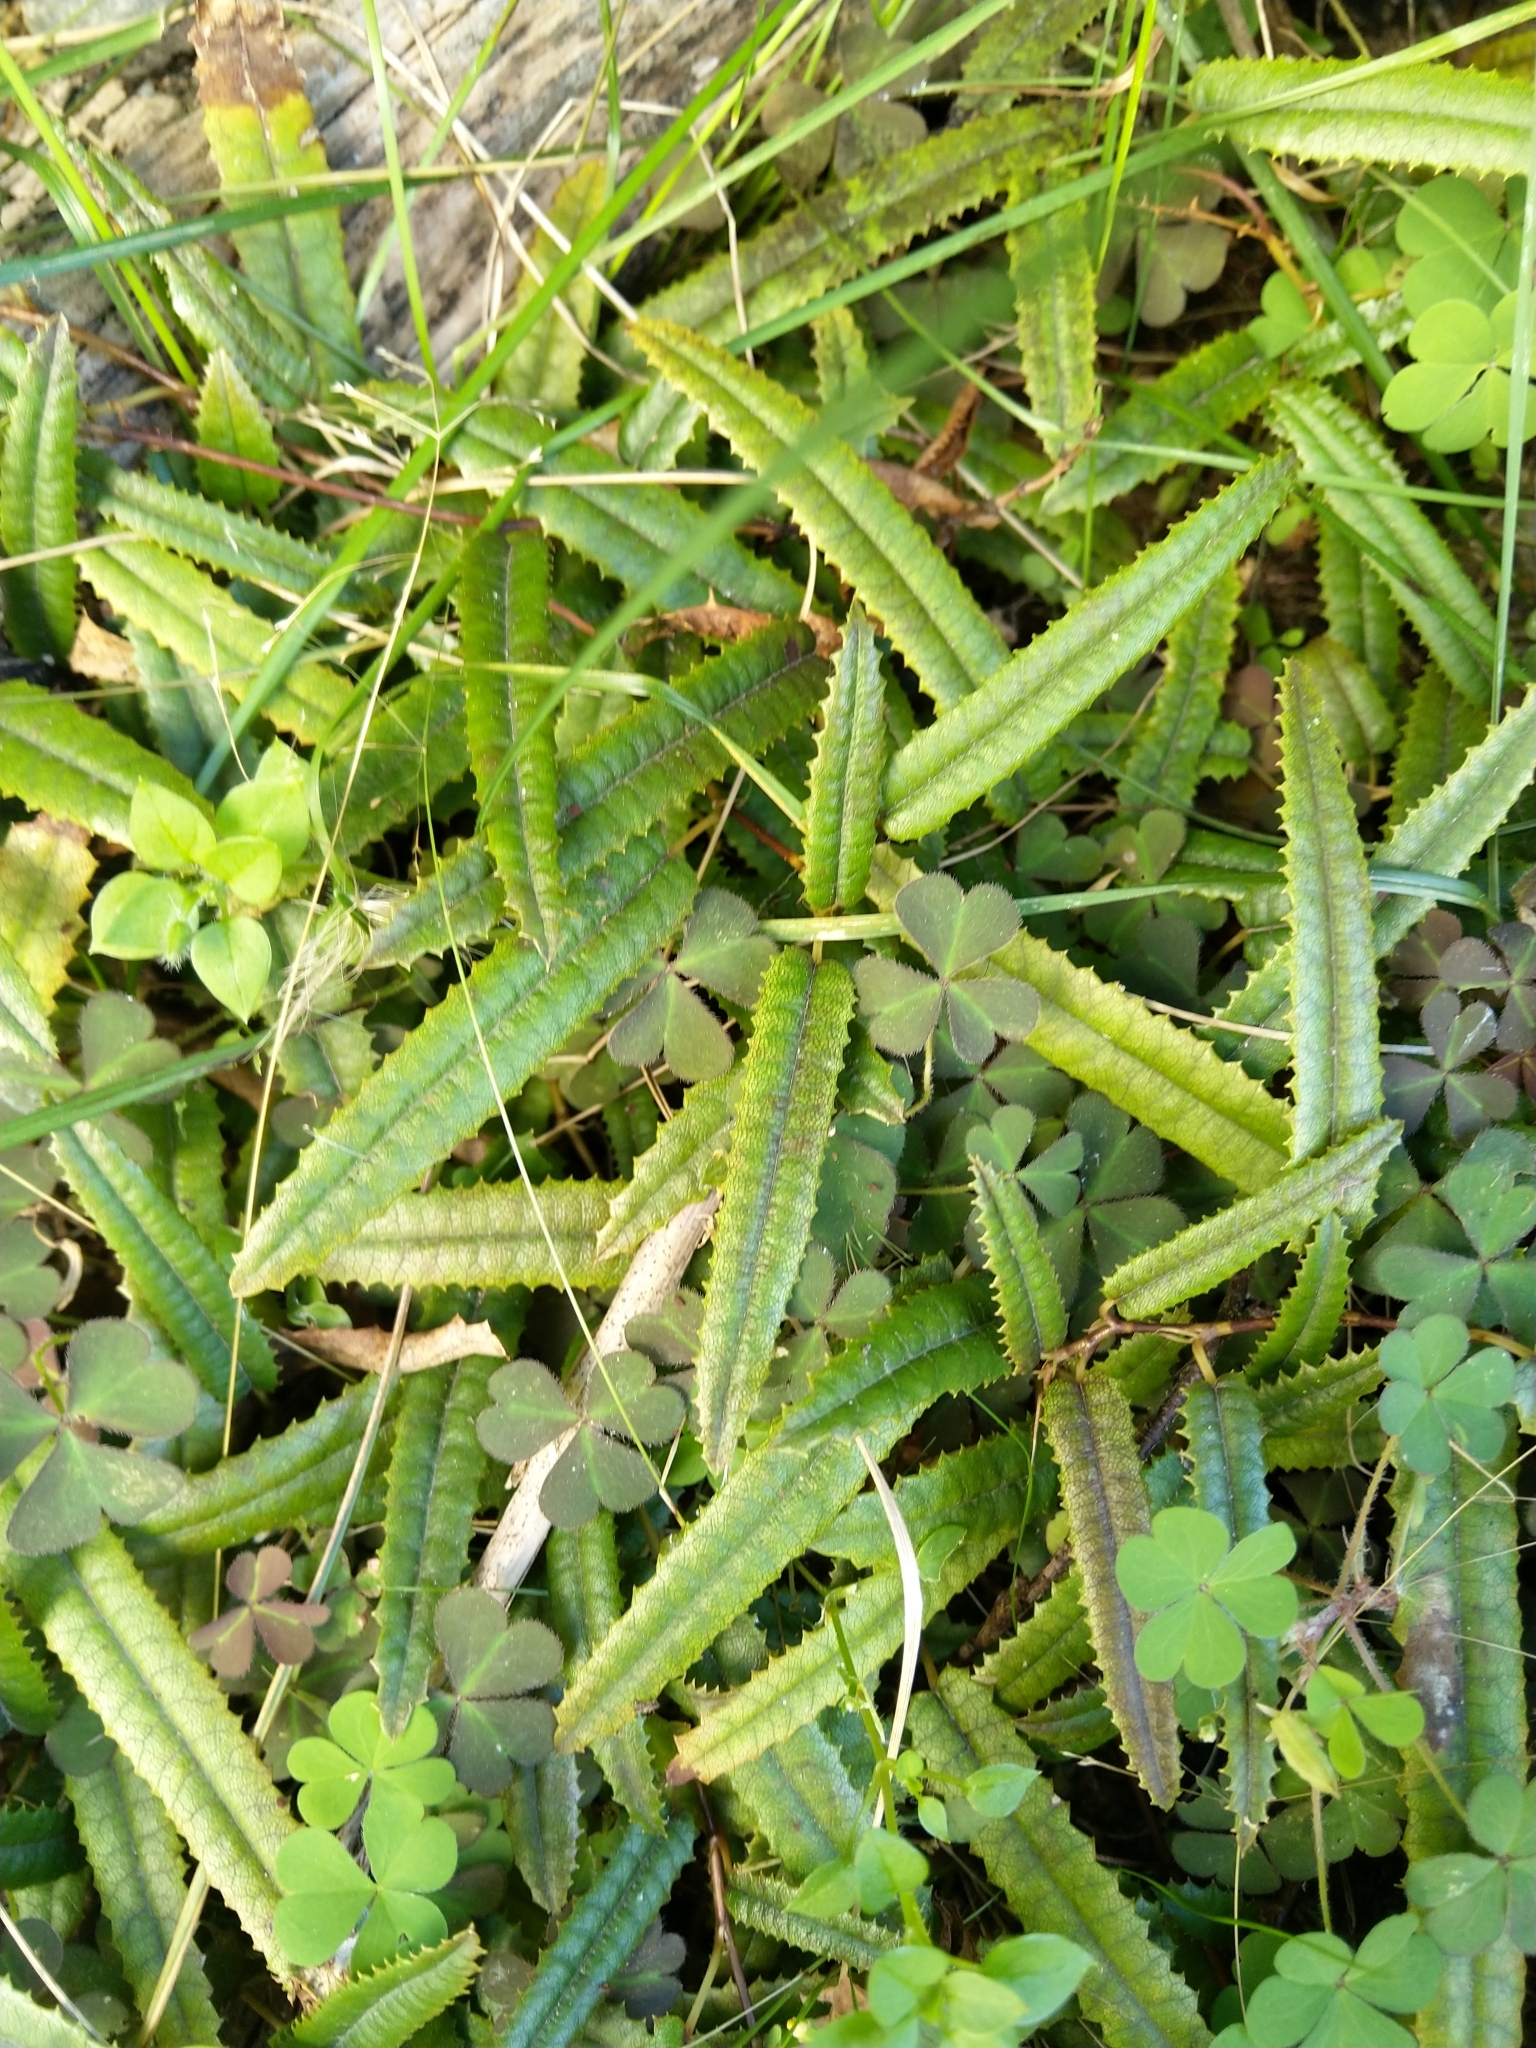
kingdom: Plantae
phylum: Tracheophyta
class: Magnoliopsida
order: Rosales
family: Rosaceae
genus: Rubus
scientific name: Rubus parvus
